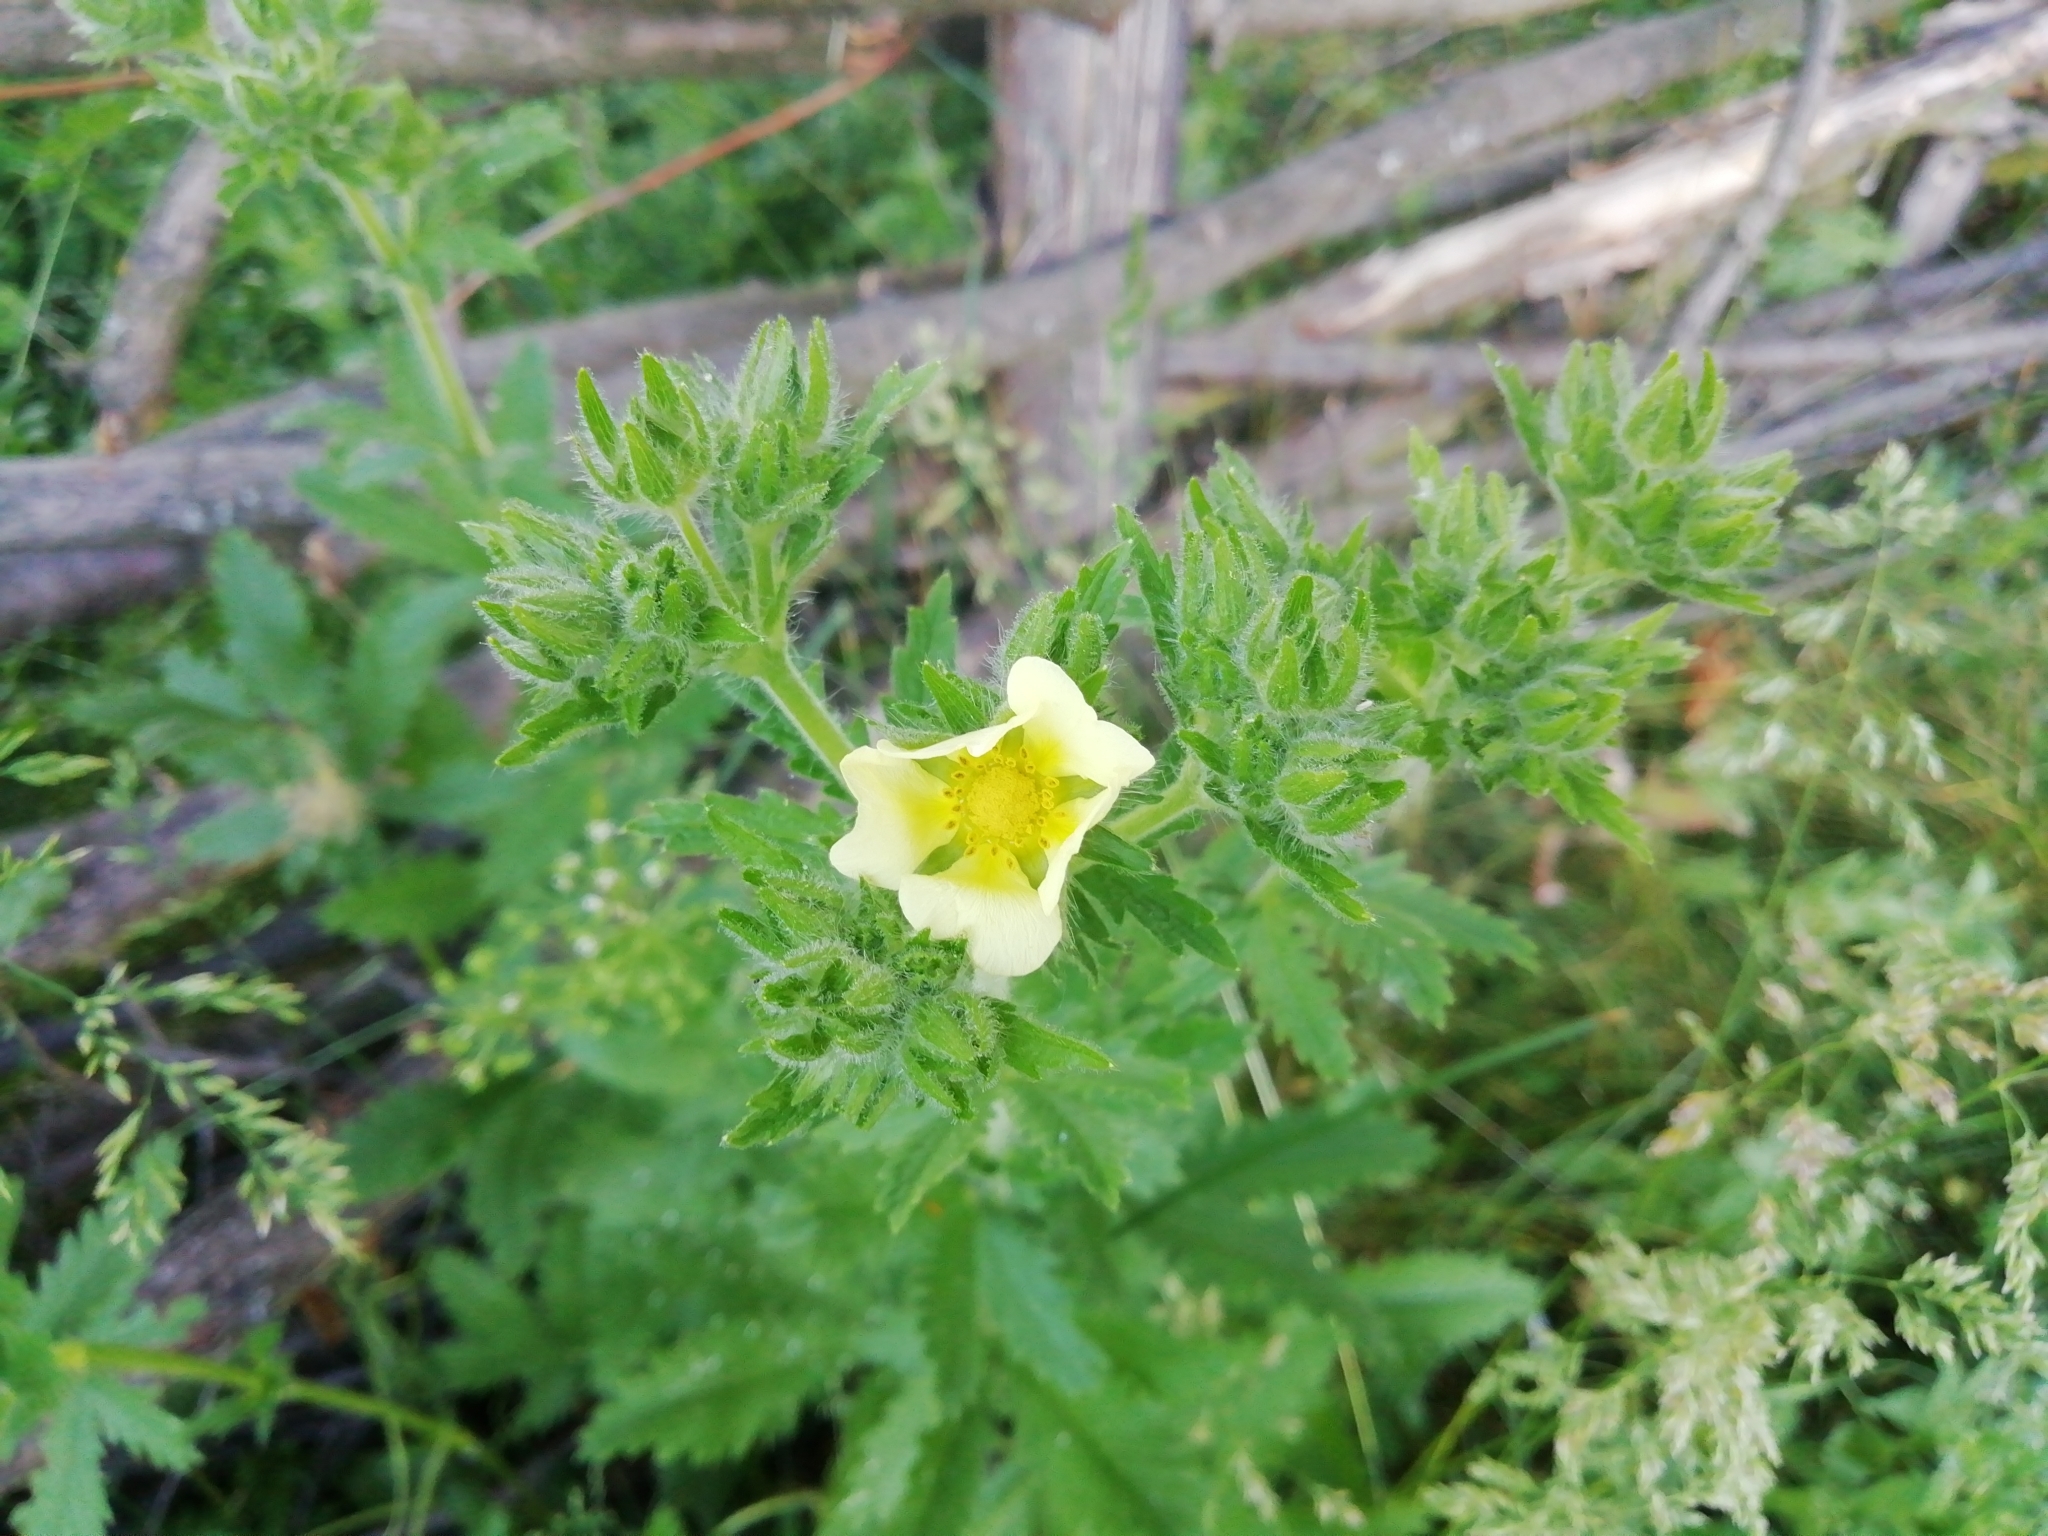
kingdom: Plantae
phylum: Tracheophyta
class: Magnoliopsida
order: Rosales
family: Rosaceae
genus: Potentilla
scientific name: Potentilla recta
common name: Sulphur cinquefoil
